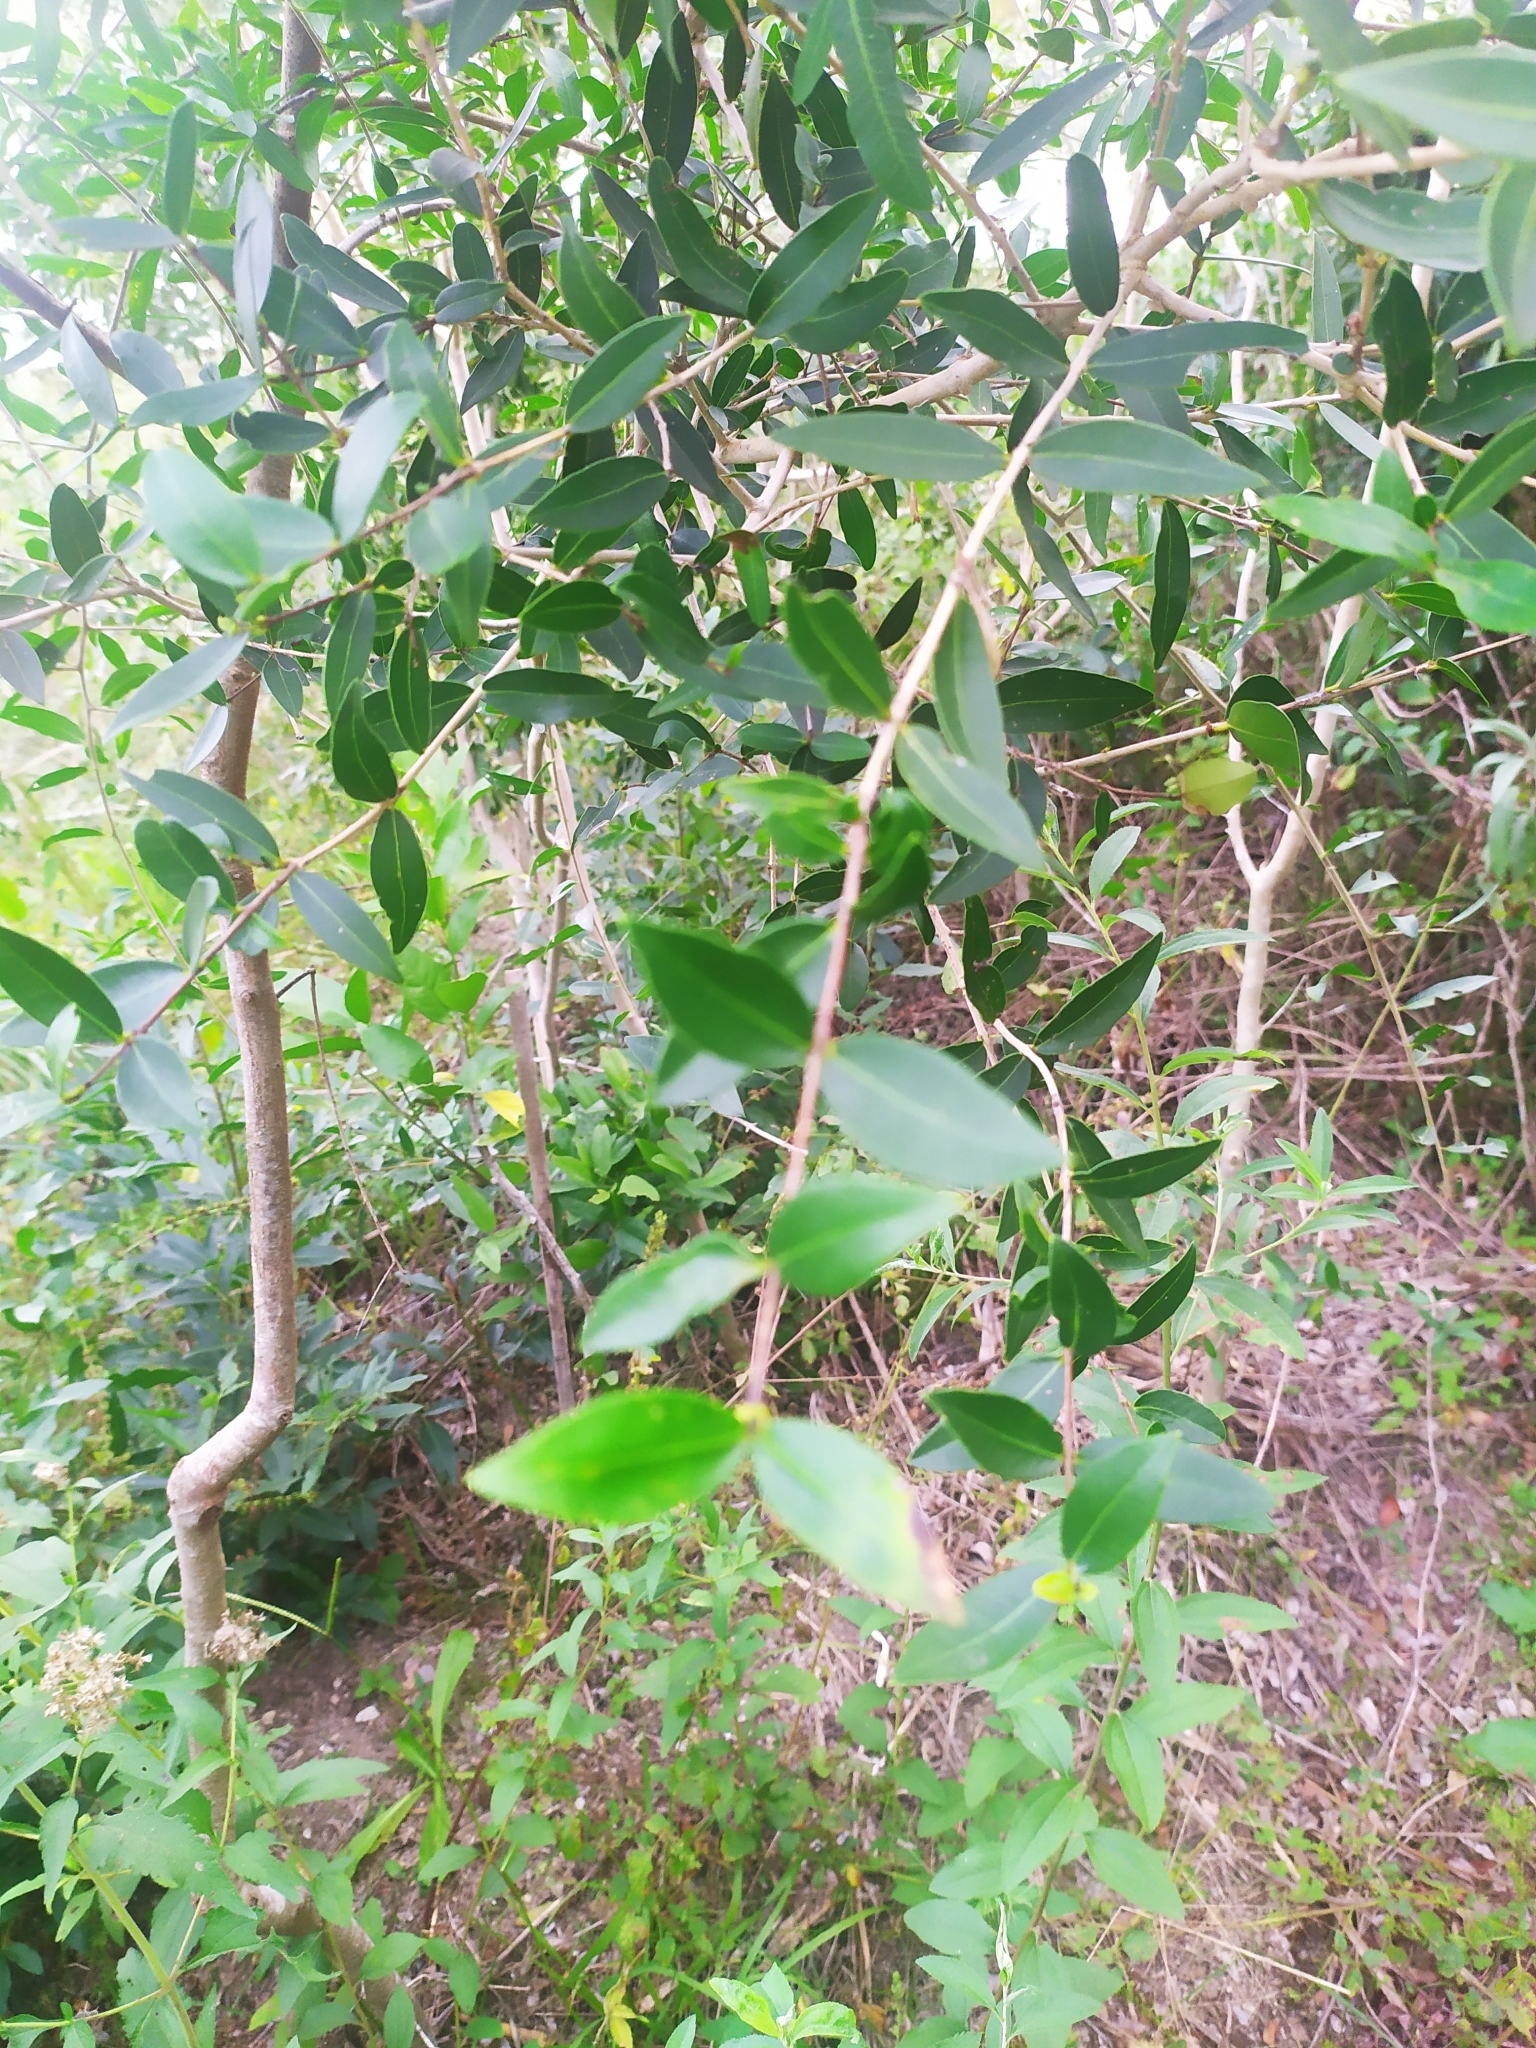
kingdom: Plantae
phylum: Tracheophyta
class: Magnoliopsida
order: Myrtales
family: Myrtaceae
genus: Myrcianthes
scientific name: Myrcianthes cisplatensis
